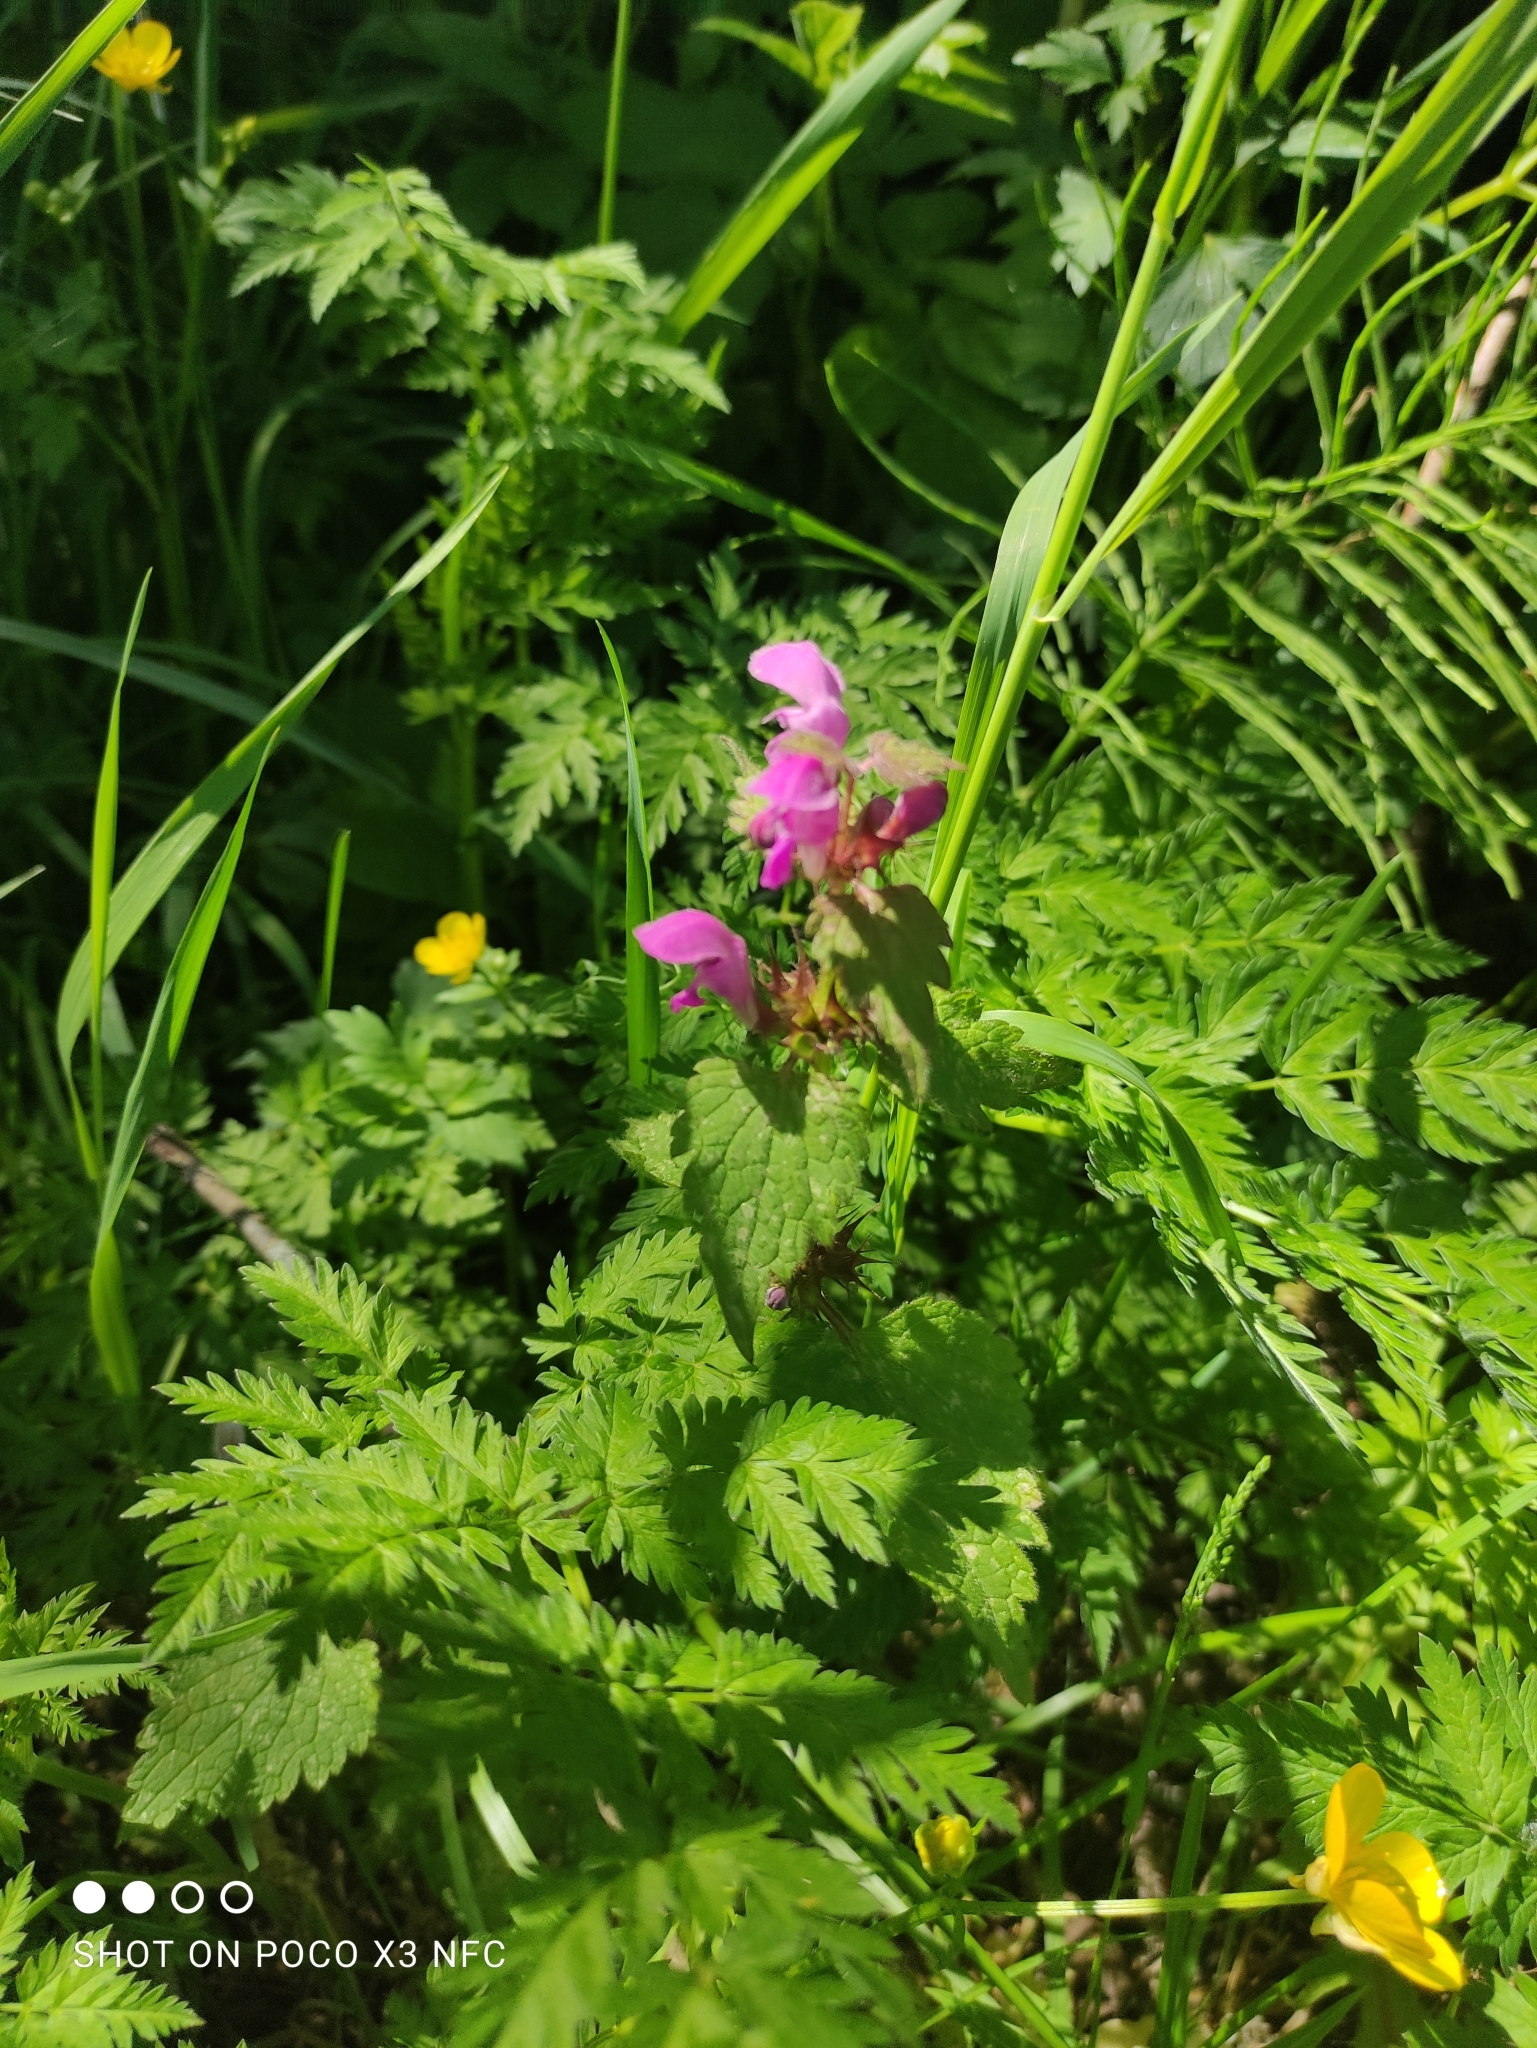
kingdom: Plantae
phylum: Tracheophyta
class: Magnoliopsida
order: Lamiales
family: Lamiaceae
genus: Lamium
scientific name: Lamium maculatum
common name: Spotted dead-nettle
